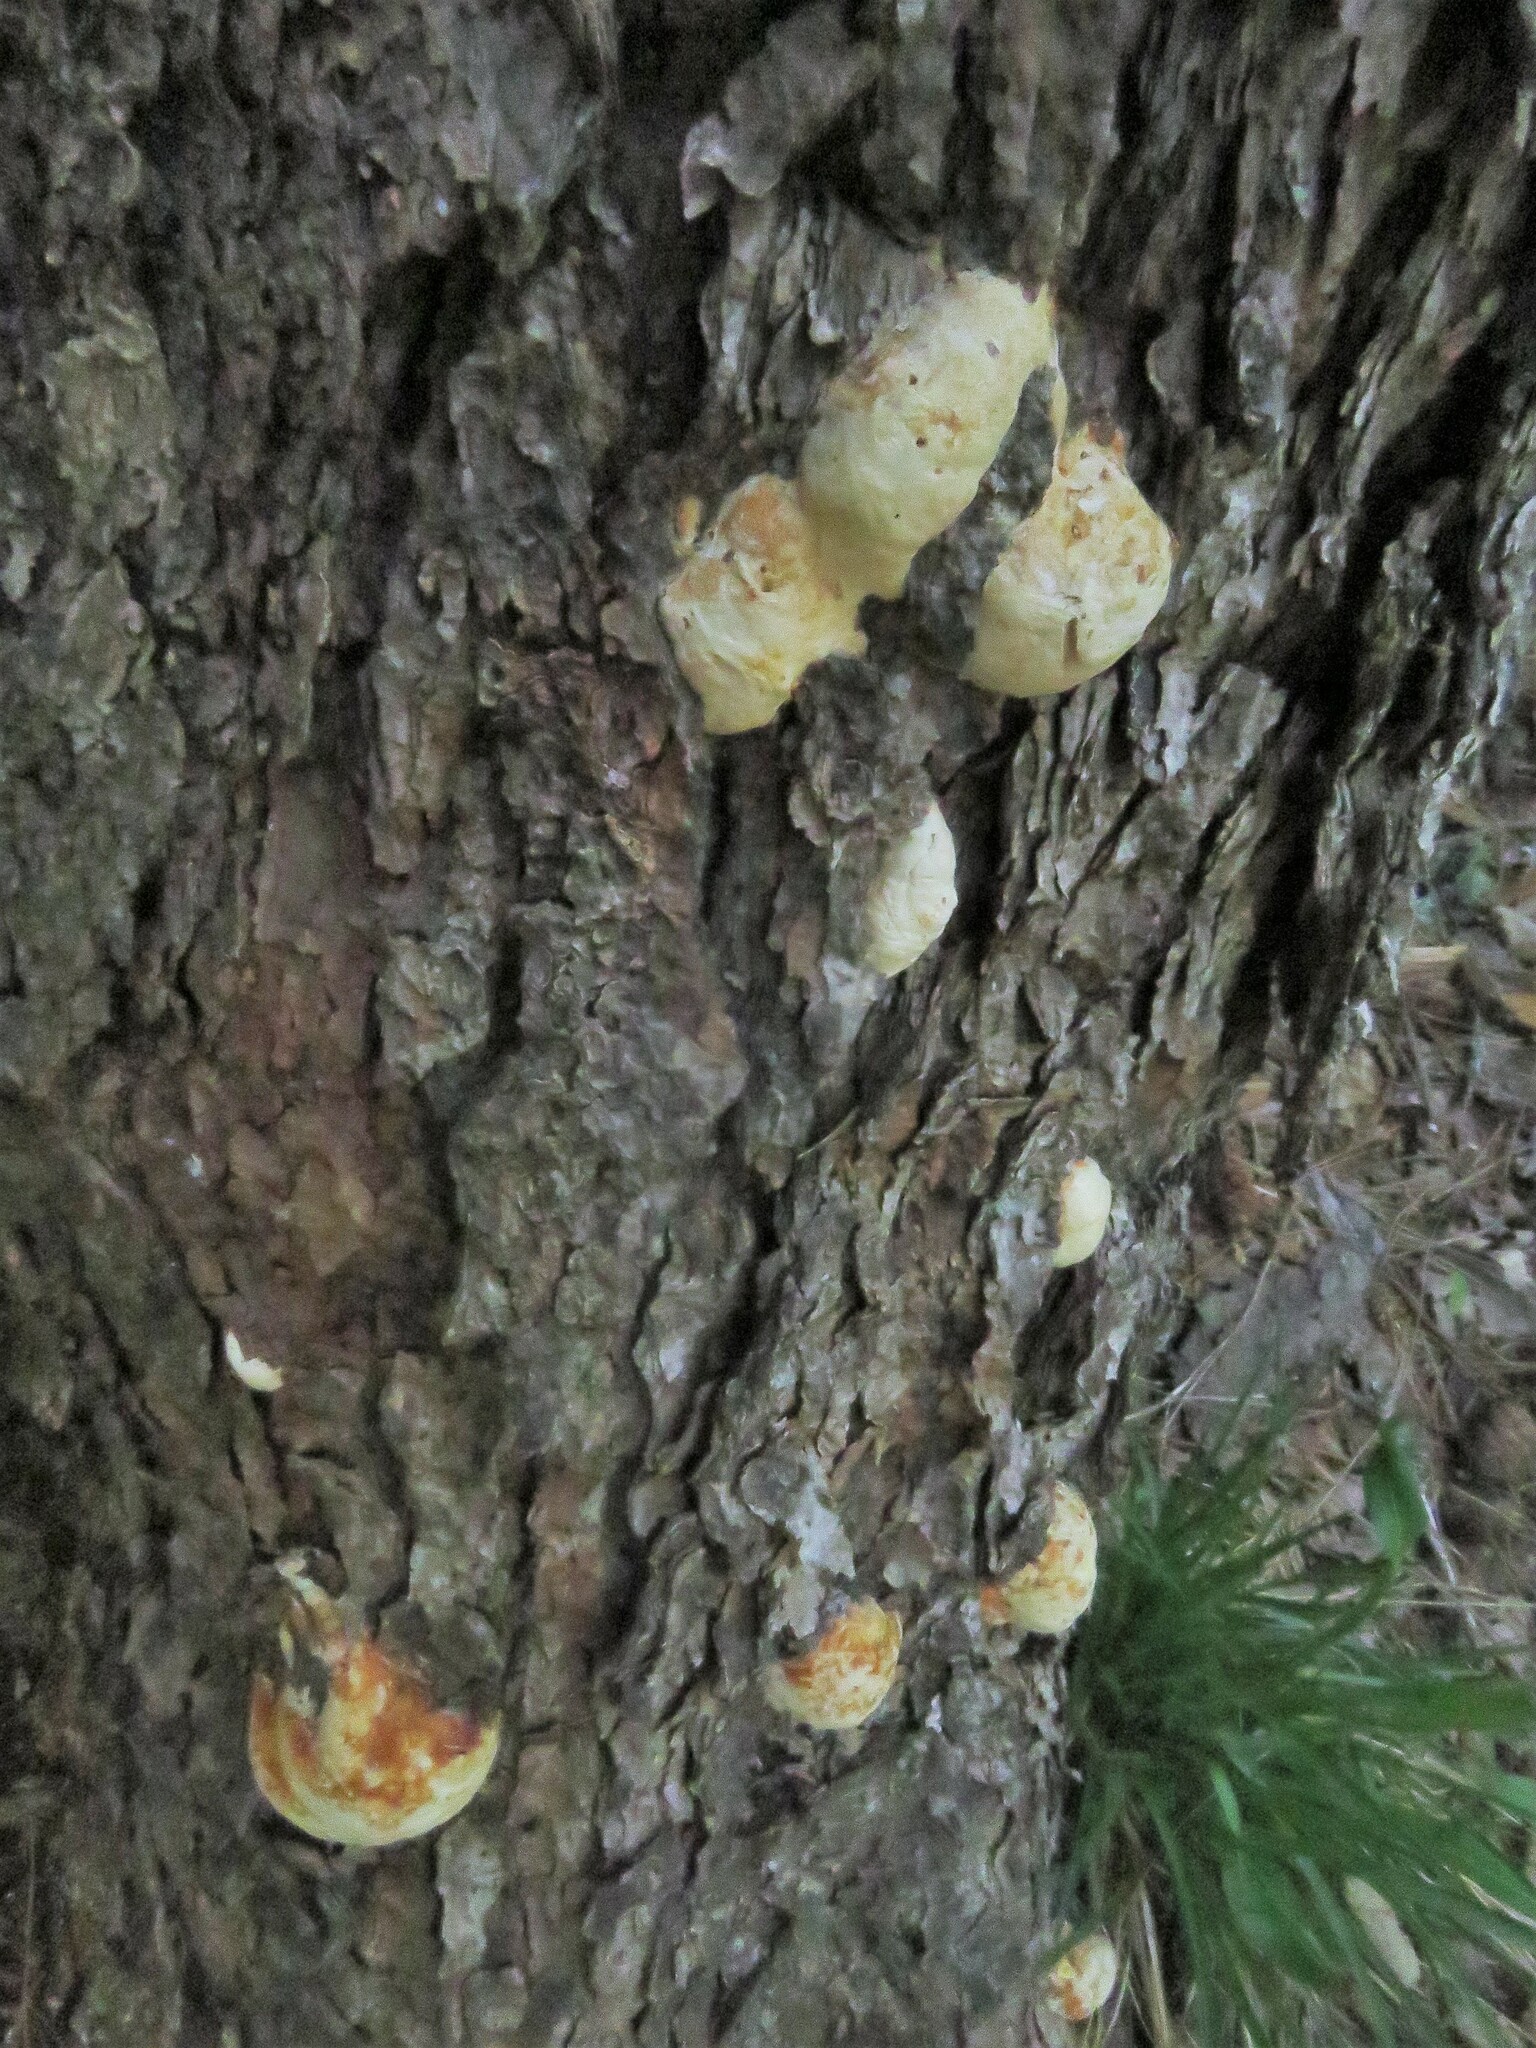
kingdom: Fungi
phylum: Basidiomycota
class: Agaricomycetes
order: Polyporales
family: Fomitopsidaceae
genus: Fomitopsis
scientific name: Fomitopsis mounceae
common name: Northern red belt
